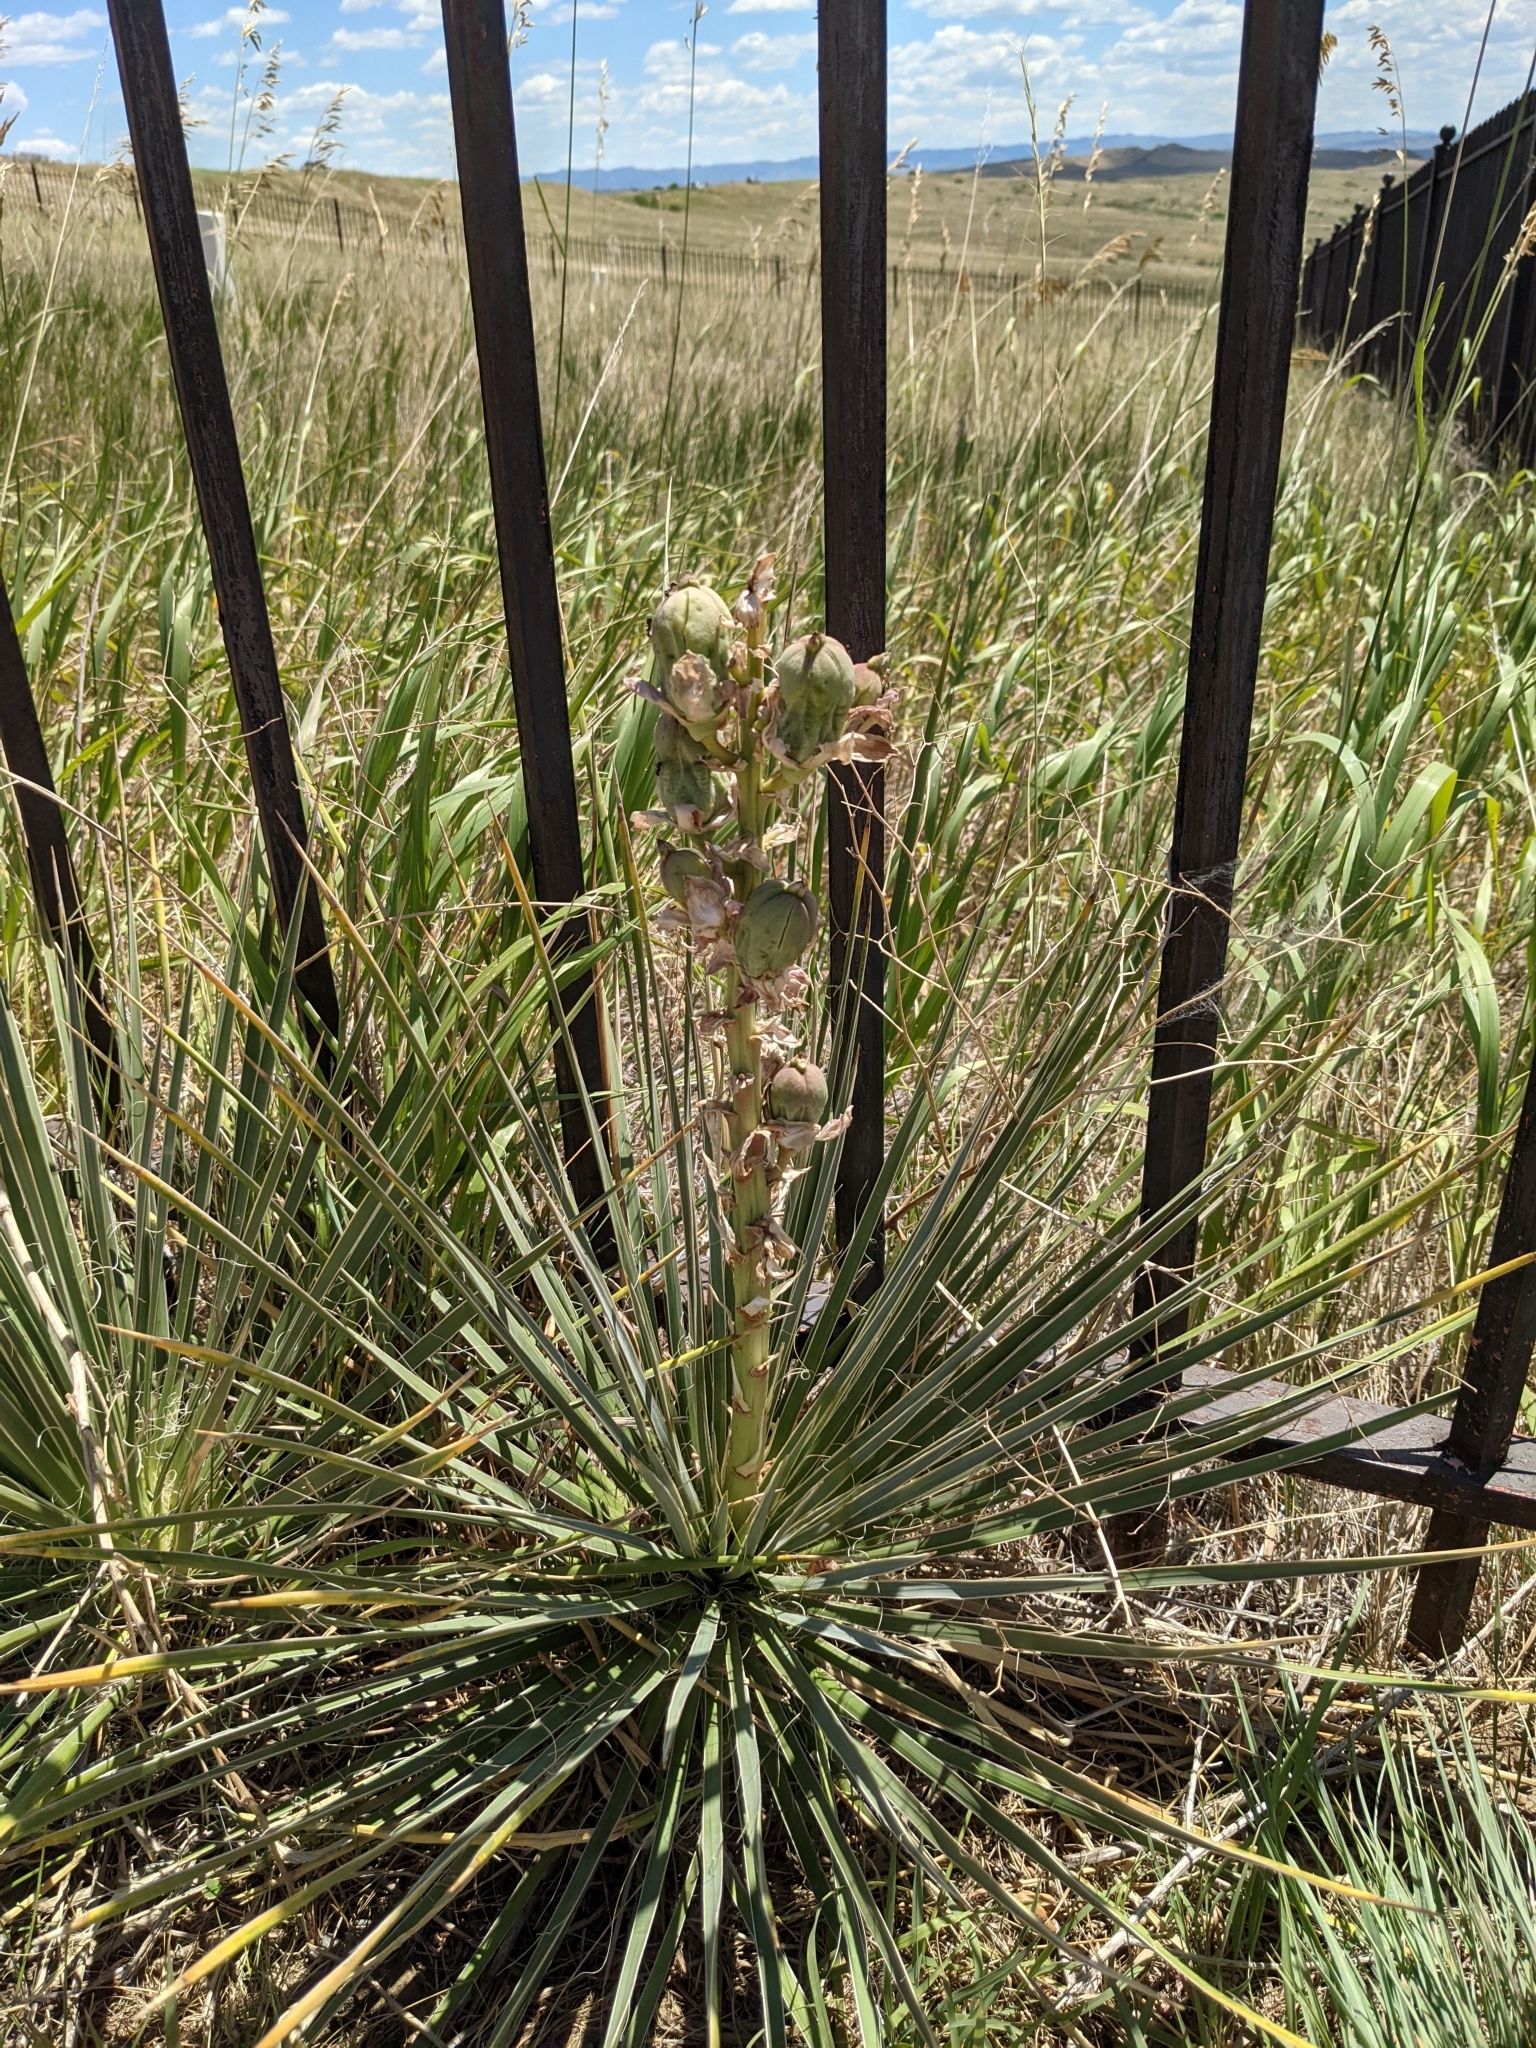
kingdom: Plantae
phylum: Tracheophyta
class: Liliopsida
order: Asparagales
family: Asparagaceae
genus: Yucca
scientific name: Yucca glauca
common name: Great plains yucca
